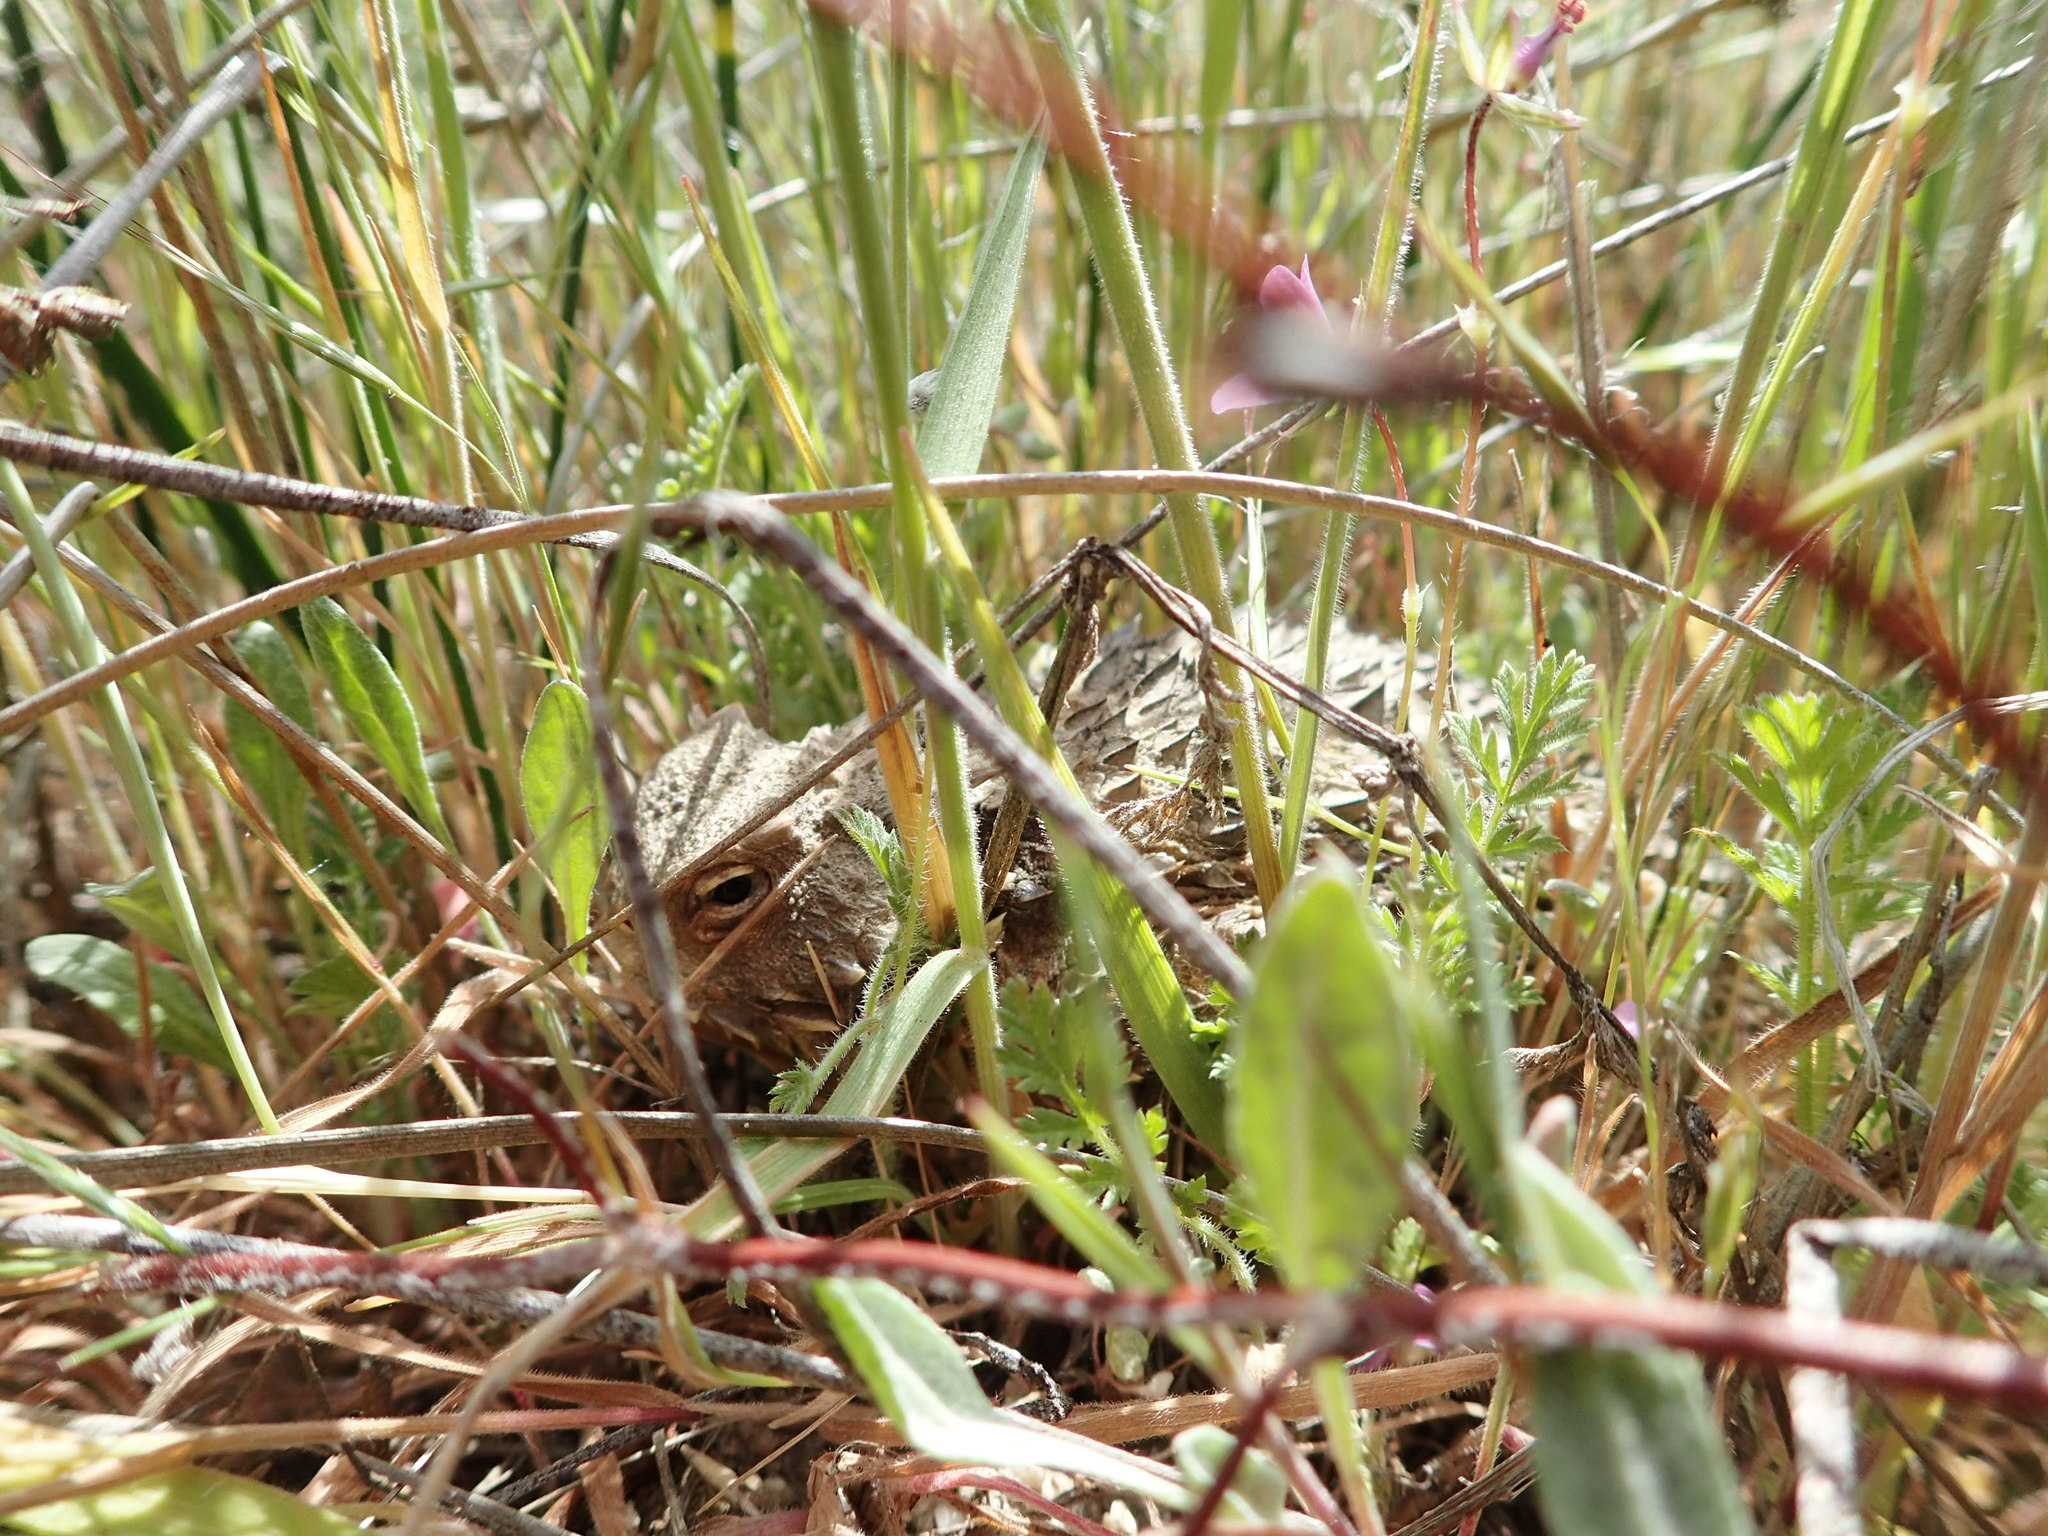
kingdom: Animalia
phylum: Chordata
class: Squamata
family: Phrynosomatidae
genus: Phrynosoma
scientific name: Phrynosoma blainvillii
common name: San diego horned lizard
